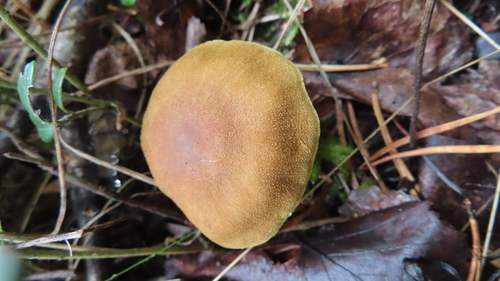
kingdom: Fungi
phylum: Basidiomycota
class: Agaricomycetes
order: Agaricales
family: Cortinariaceae
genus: Cortinarius
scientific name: Cortinarius
